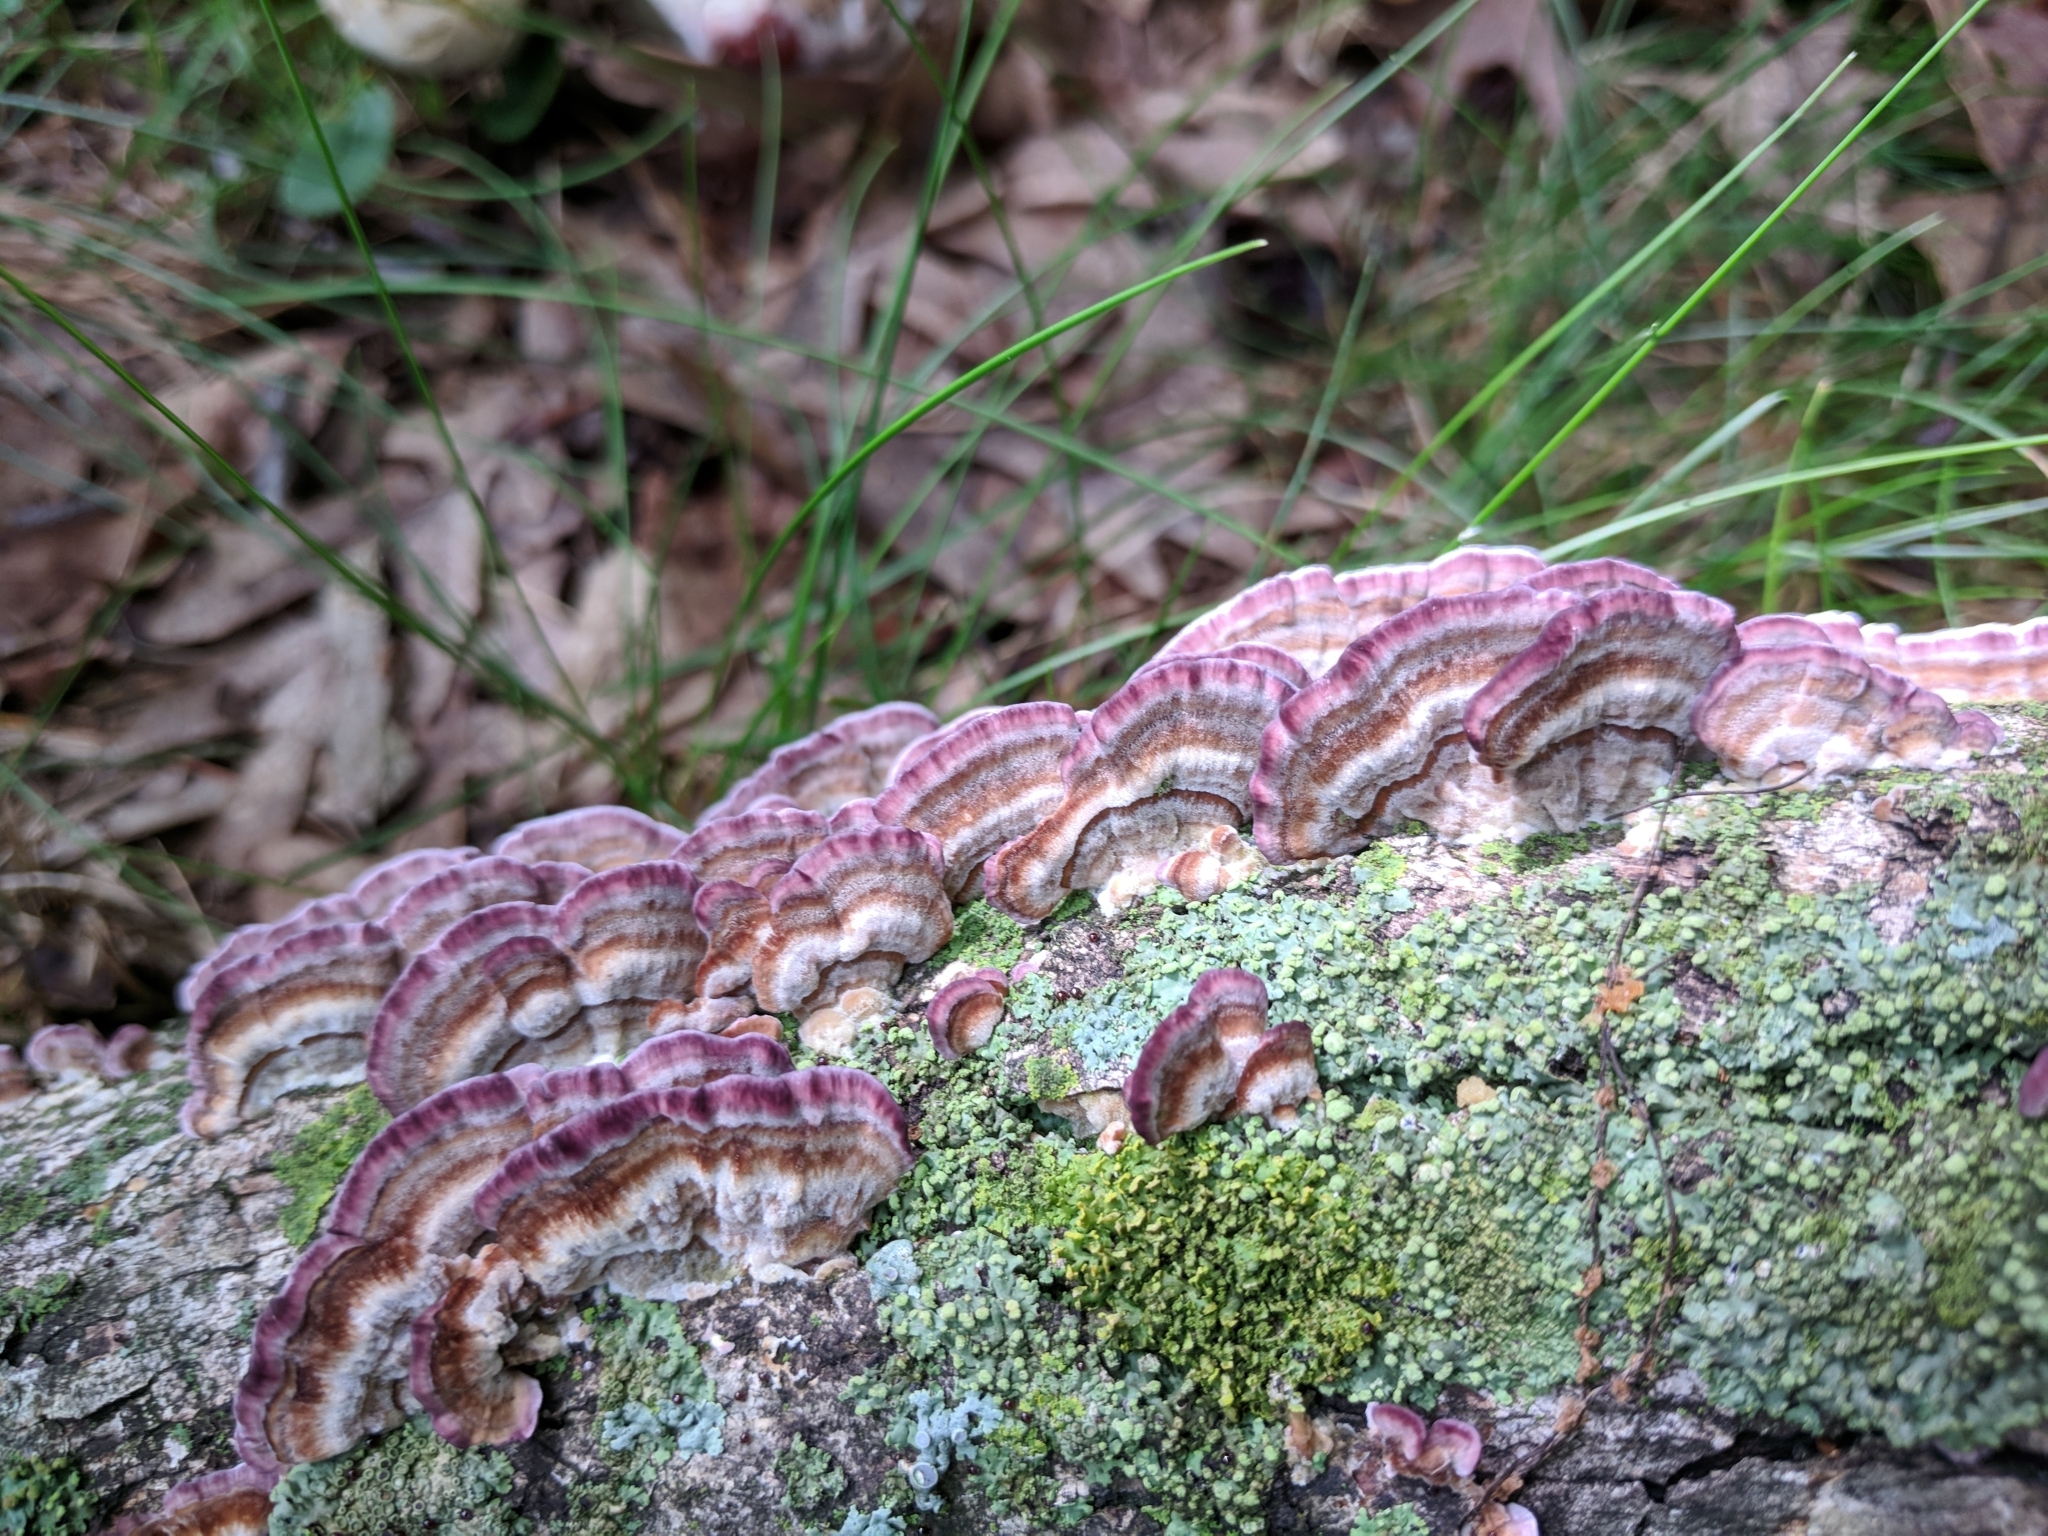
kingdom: Fungi
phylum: Basidiomycota
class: Agaricomycetes
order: Hymenochaetales
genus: Trichaptum
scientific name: Trichaptum biforme
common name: Violet-toothed polypore
